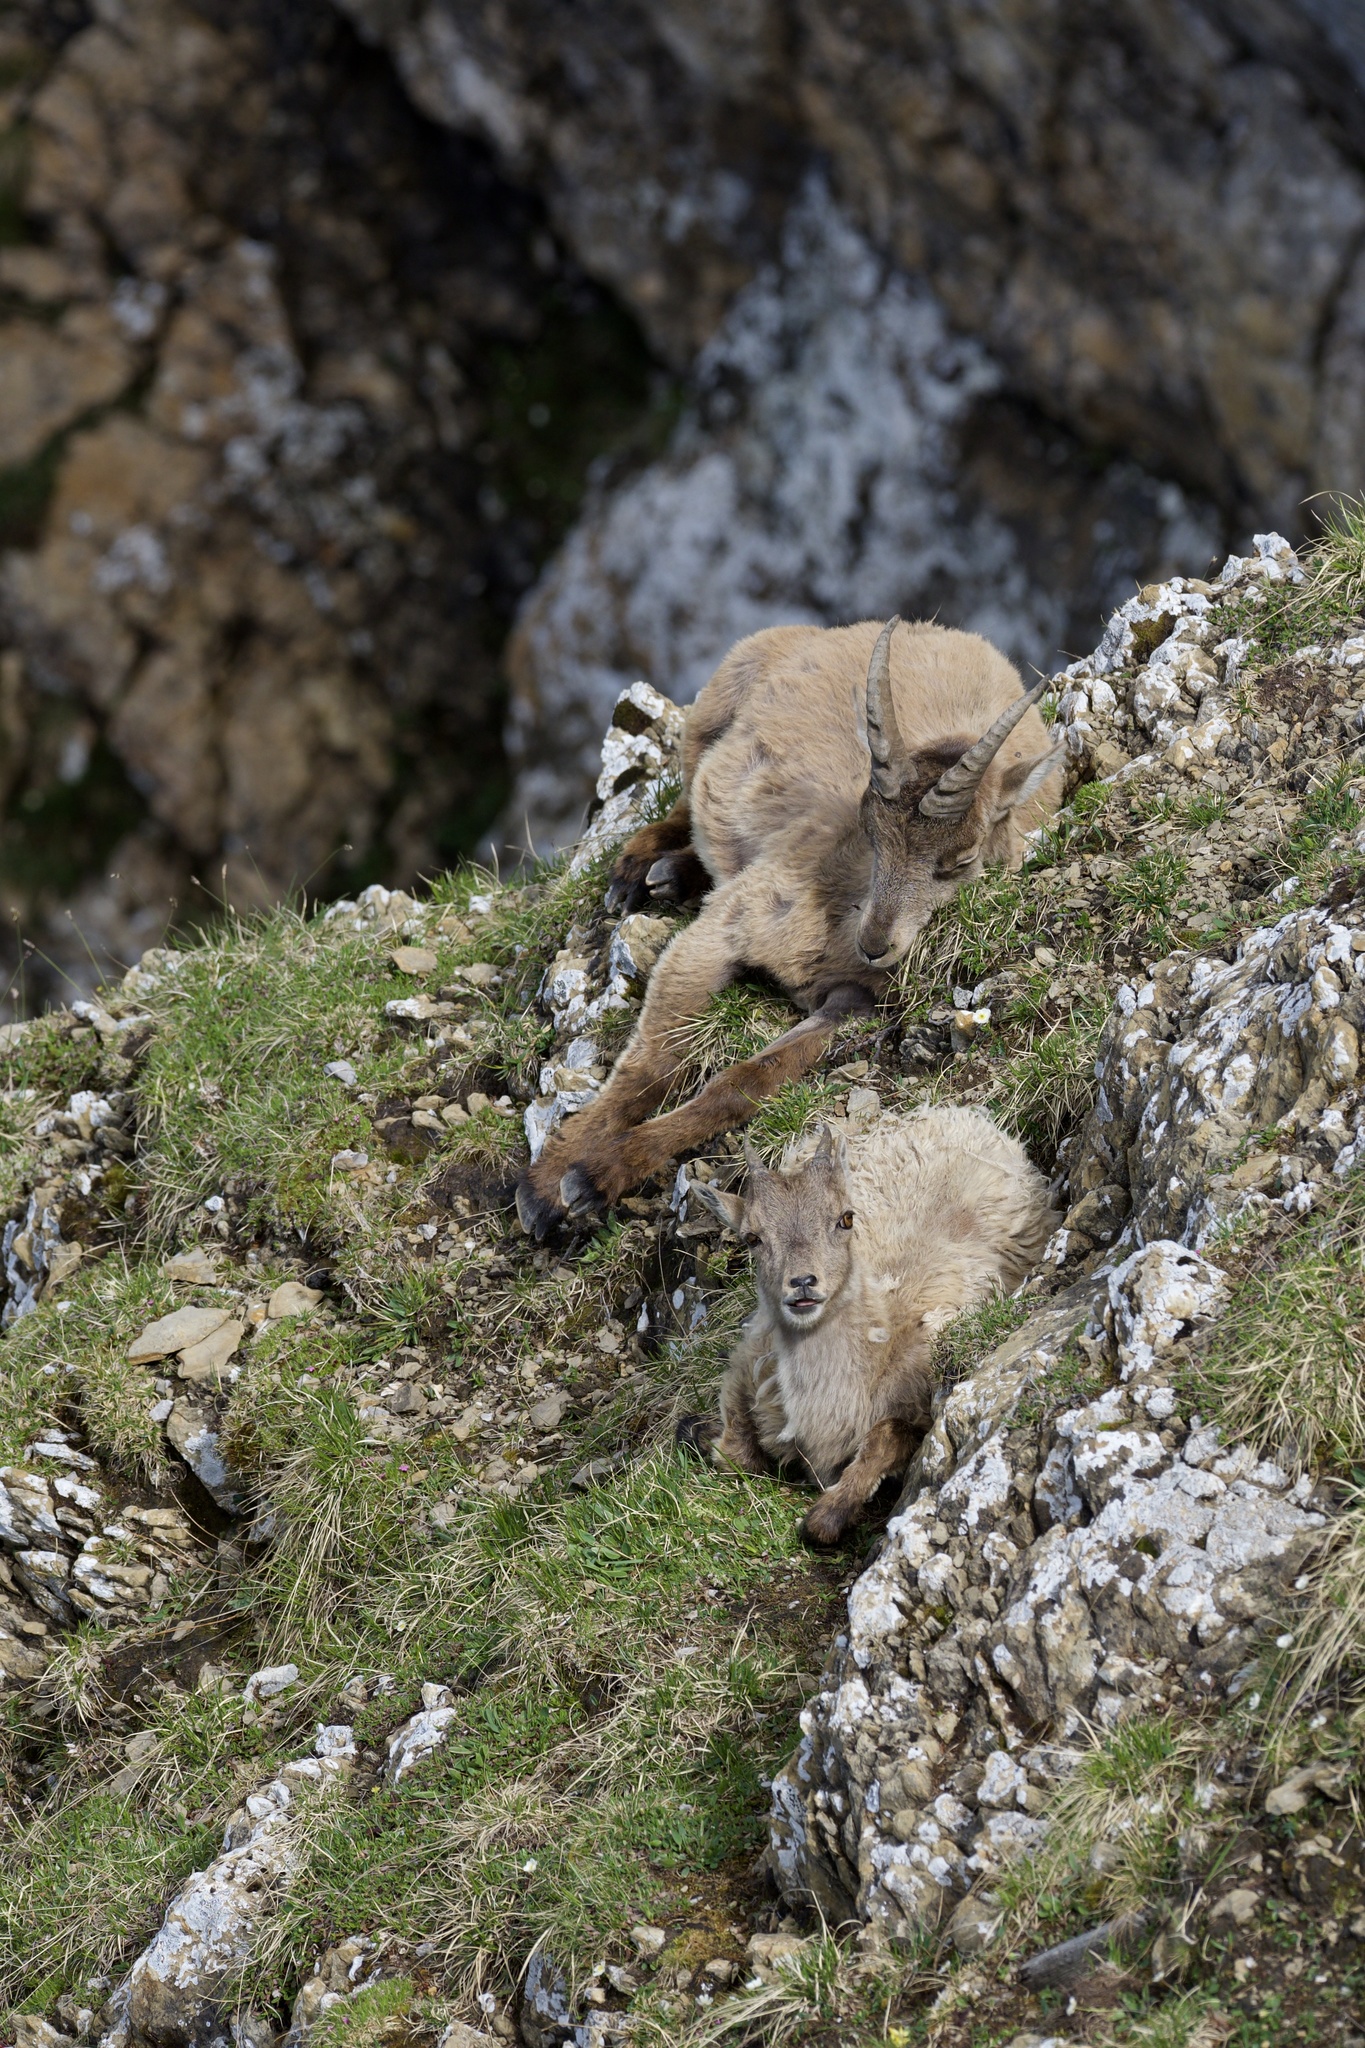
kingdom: Animalia
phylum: Chordata
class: Mammalia
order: Artiodactyla
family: Bovidae
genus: Capra
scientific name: Capra ibex
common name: Alpine ibex
